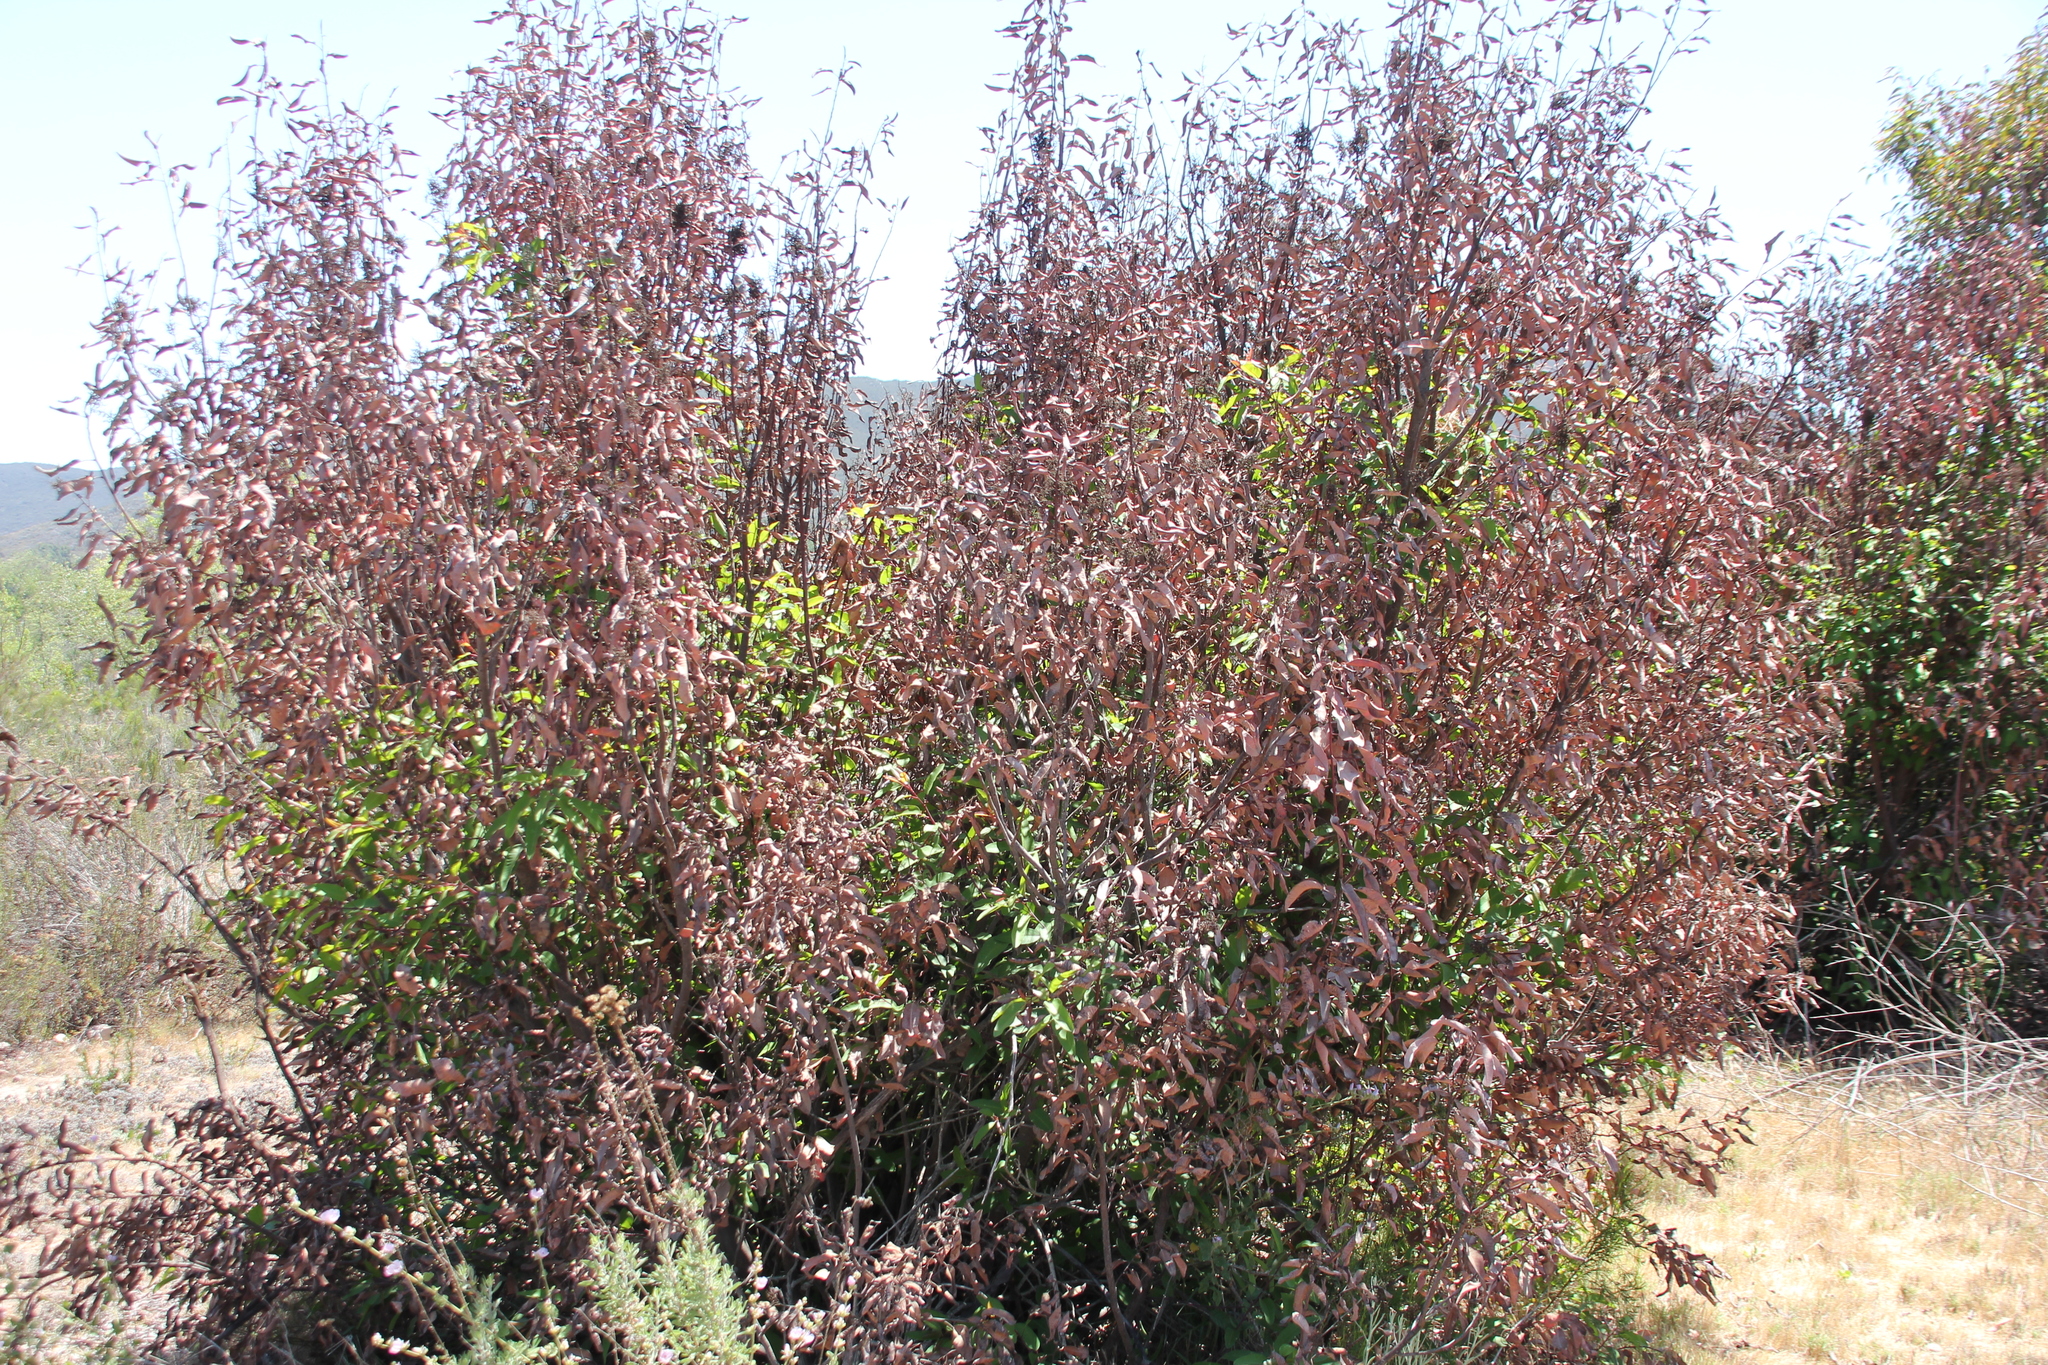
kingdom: Plantae
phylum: Tracheophyta
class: Magnoliopsida
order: Sapindales
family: Anacardiaceae
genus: Malosma
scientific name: Malosma laurina
